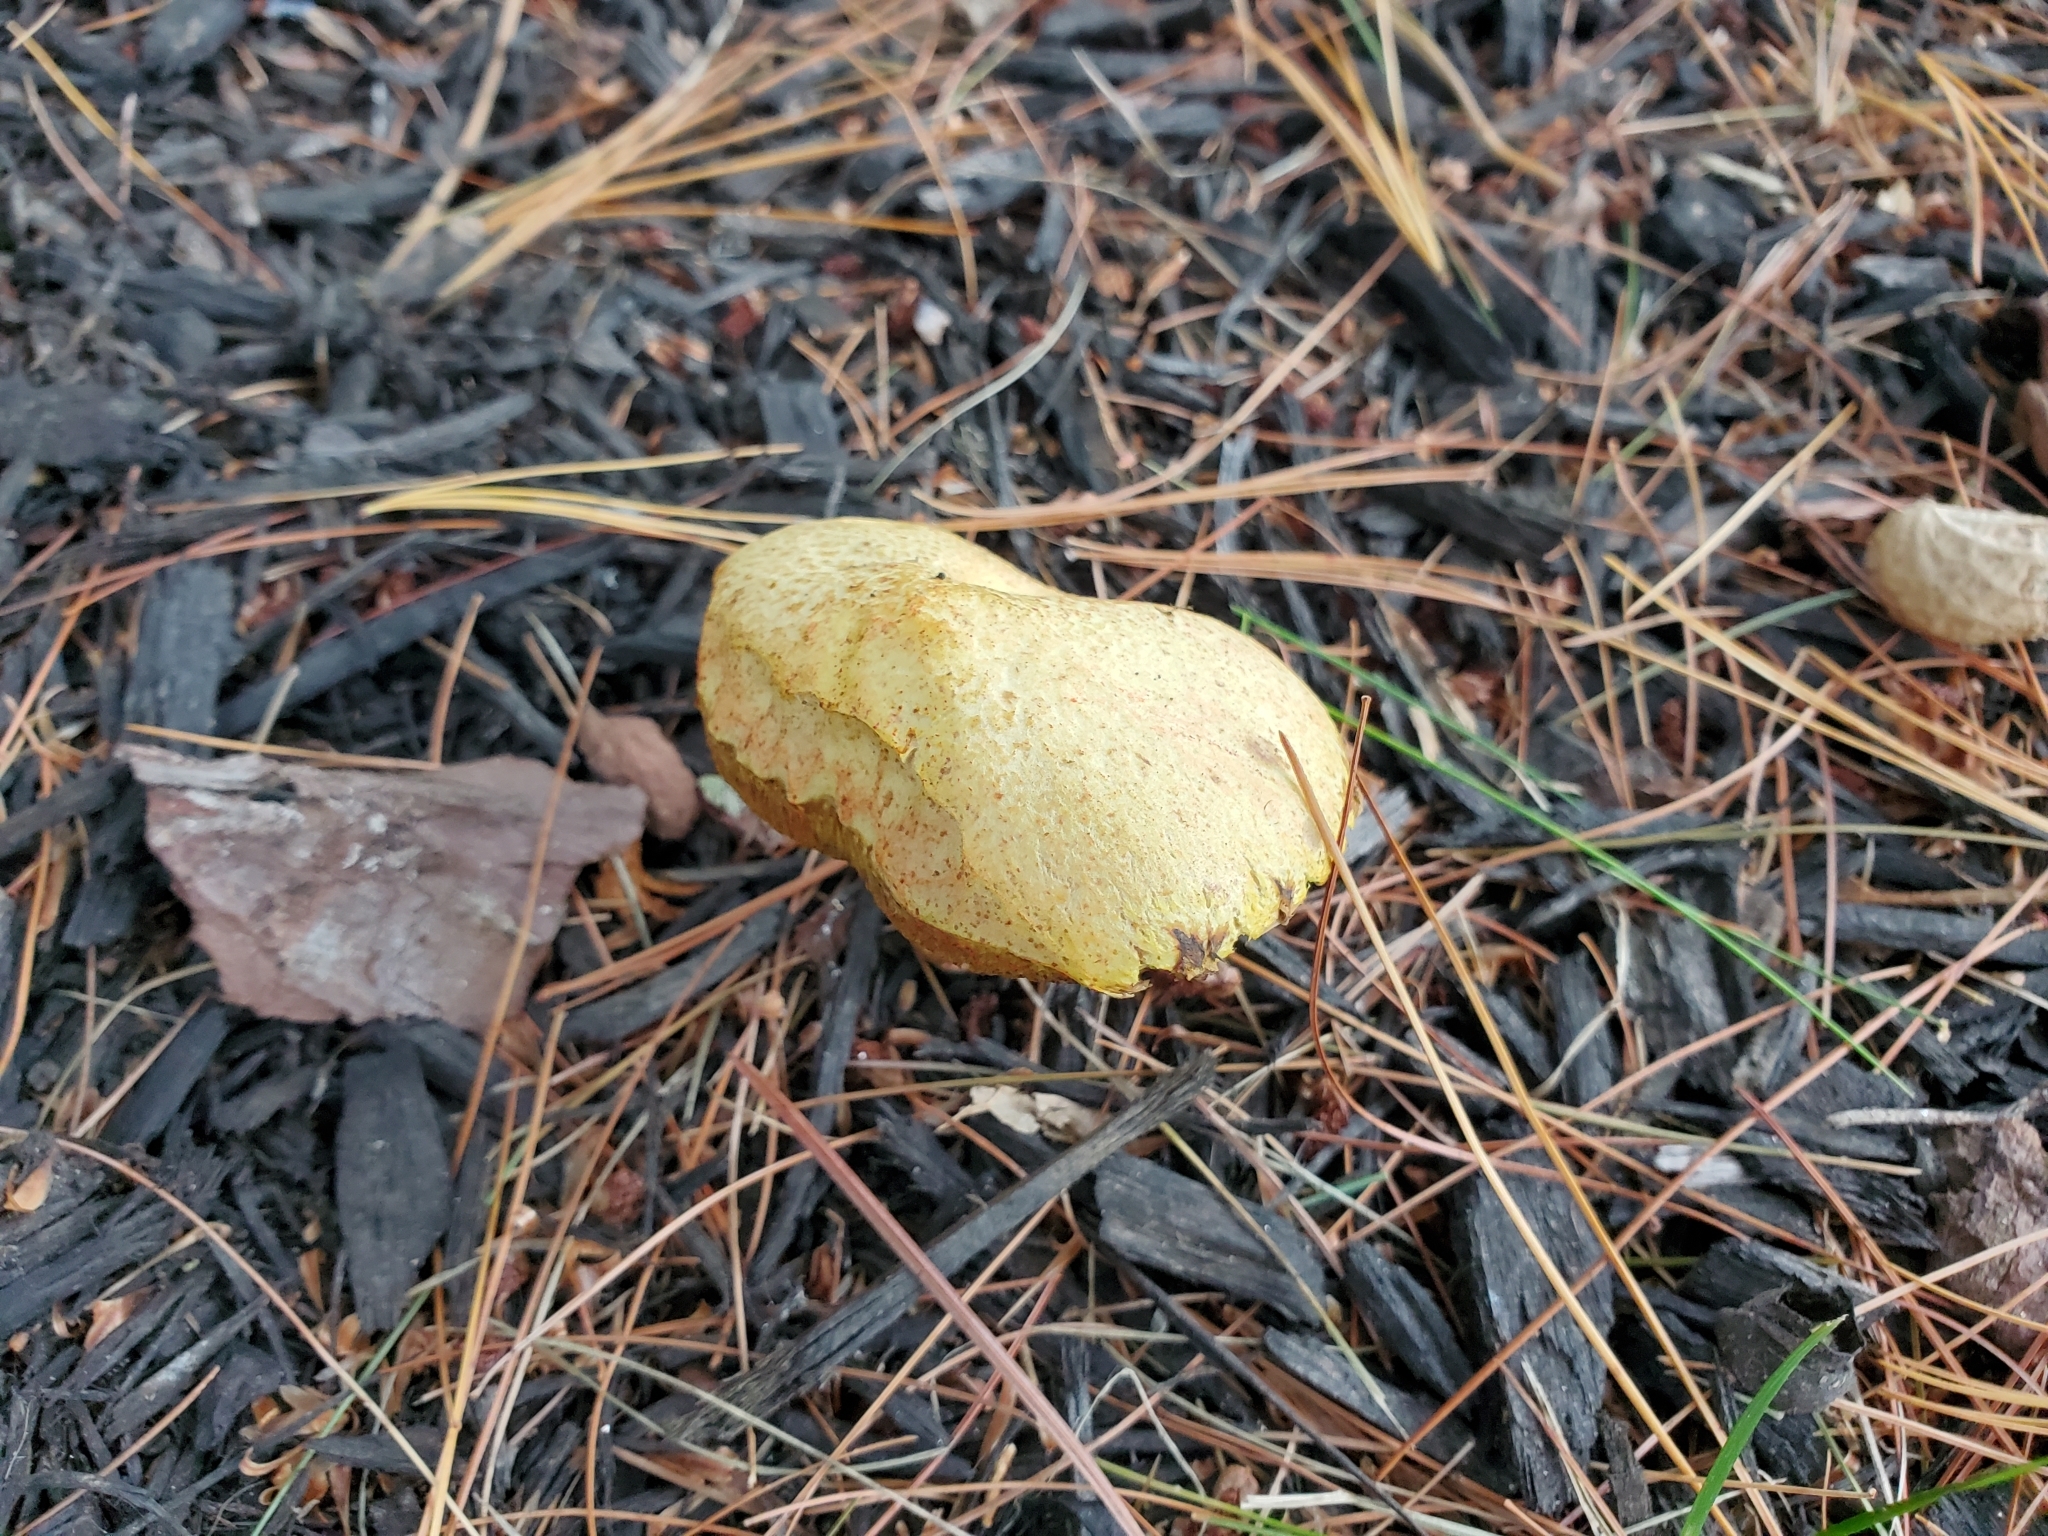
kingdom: Fungi
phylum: Basidiomycota
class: Agaricomycetes
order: Boletales
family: Suillaceae
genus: Suillus
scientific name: Suillus americanus
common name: Chicken fat mushroom
